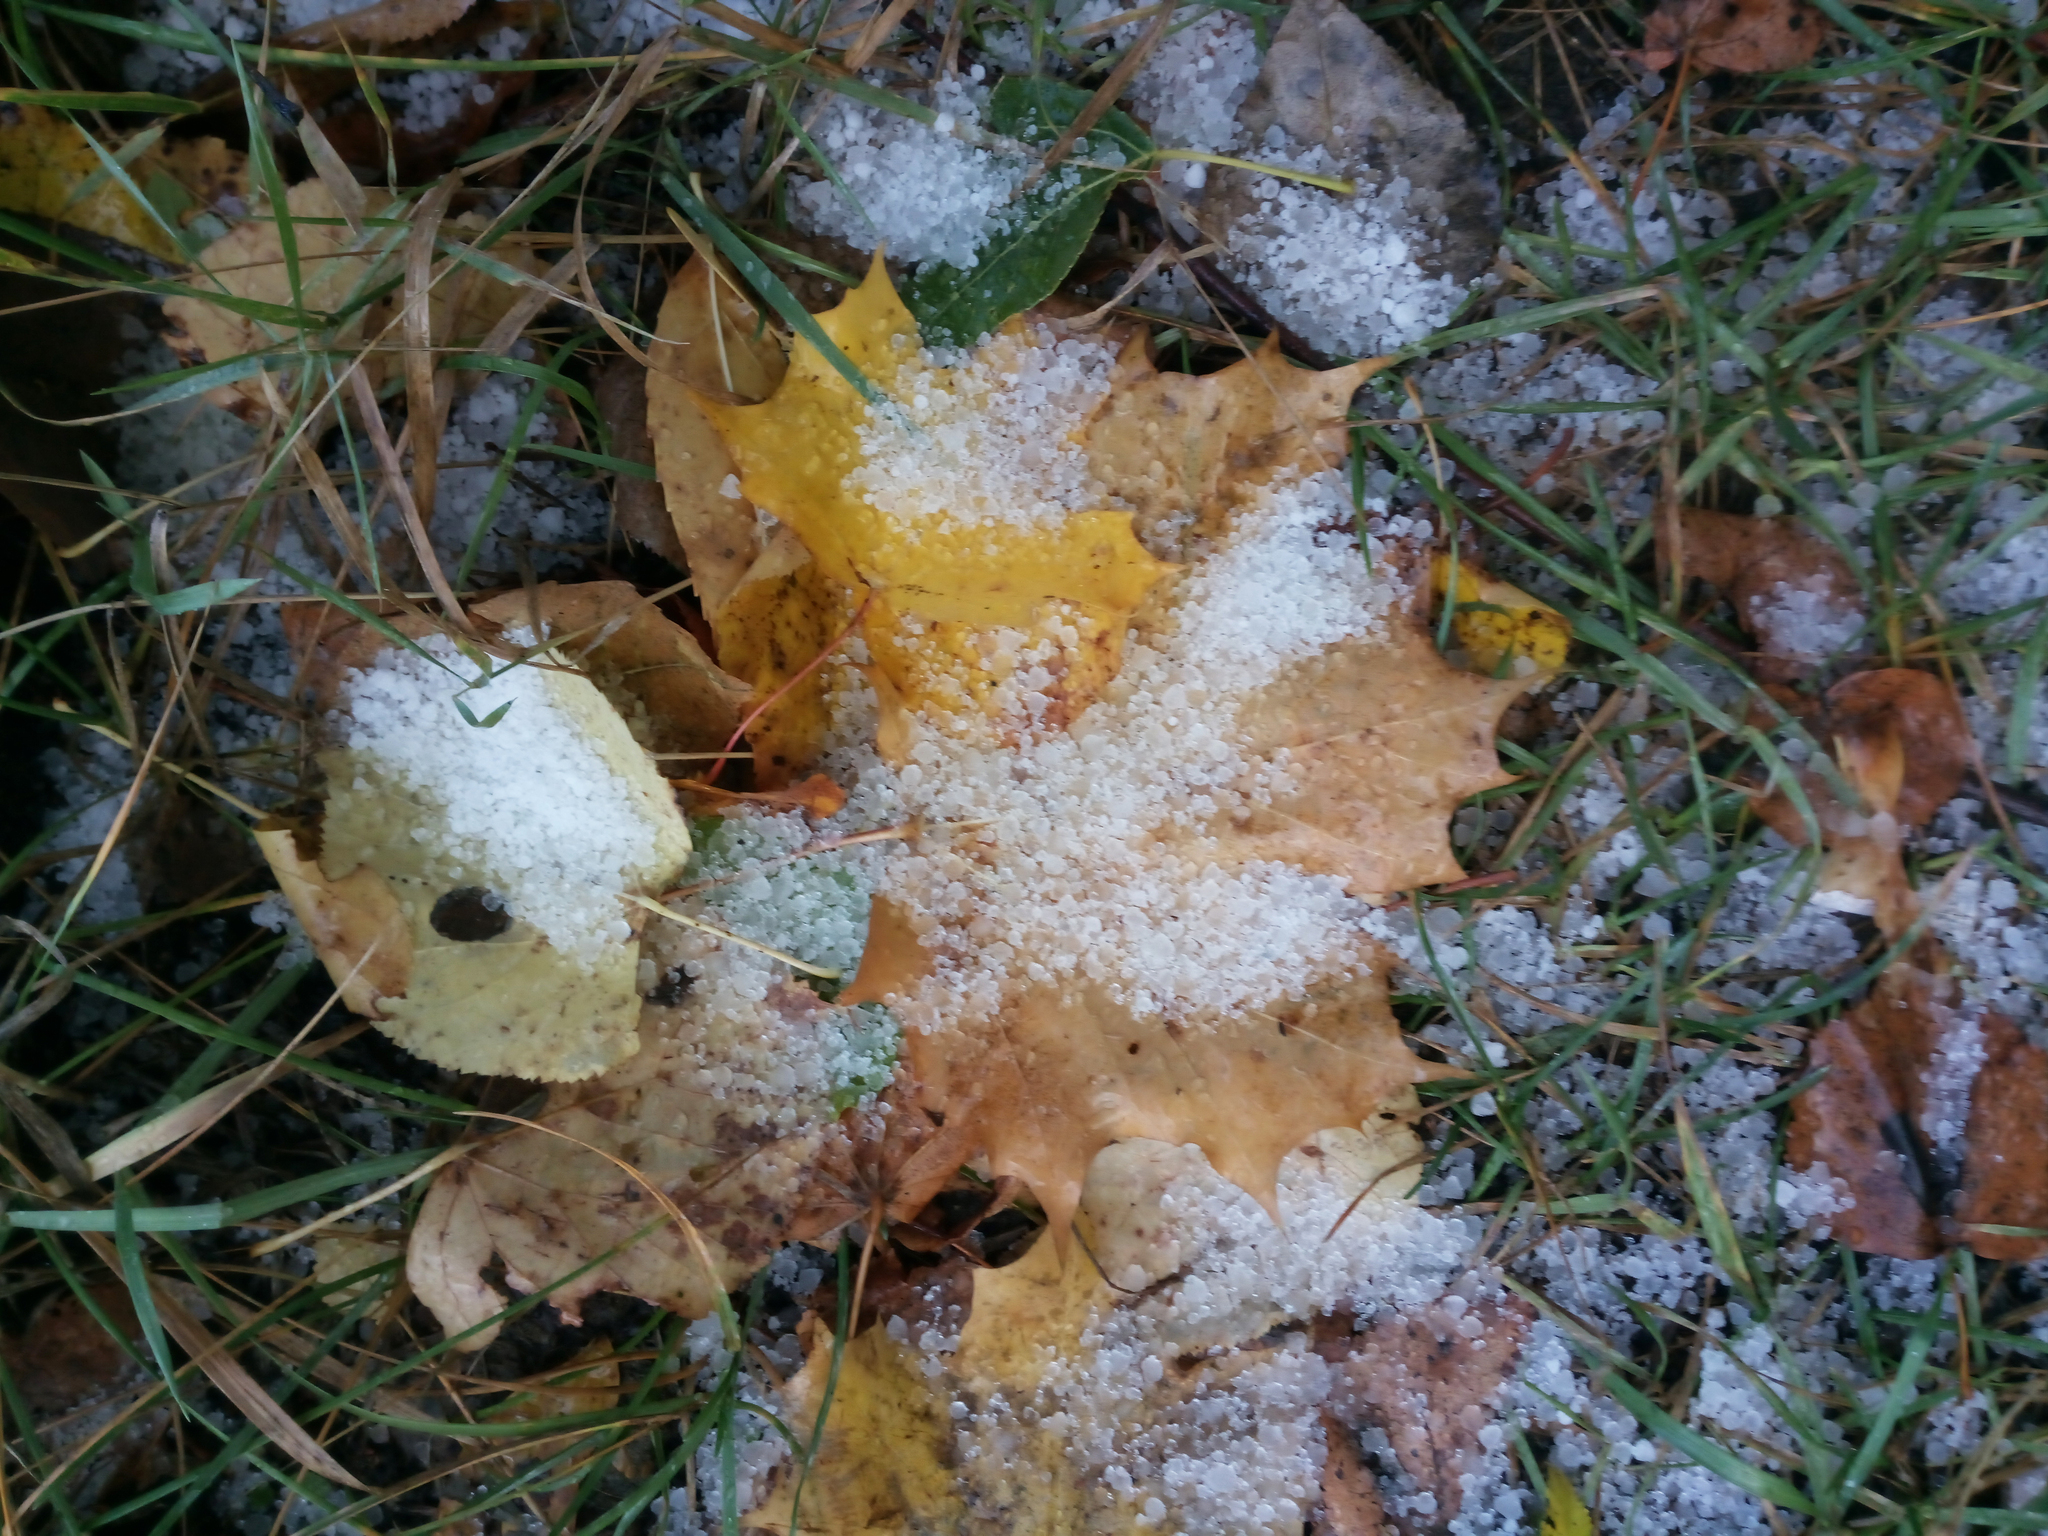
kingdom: Plantae
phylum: Tracheophyta
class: Magnoliopsida
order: Sapindales
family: Sapindaceae
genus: Acer
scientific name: Acer platanoides
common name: Norway maple
